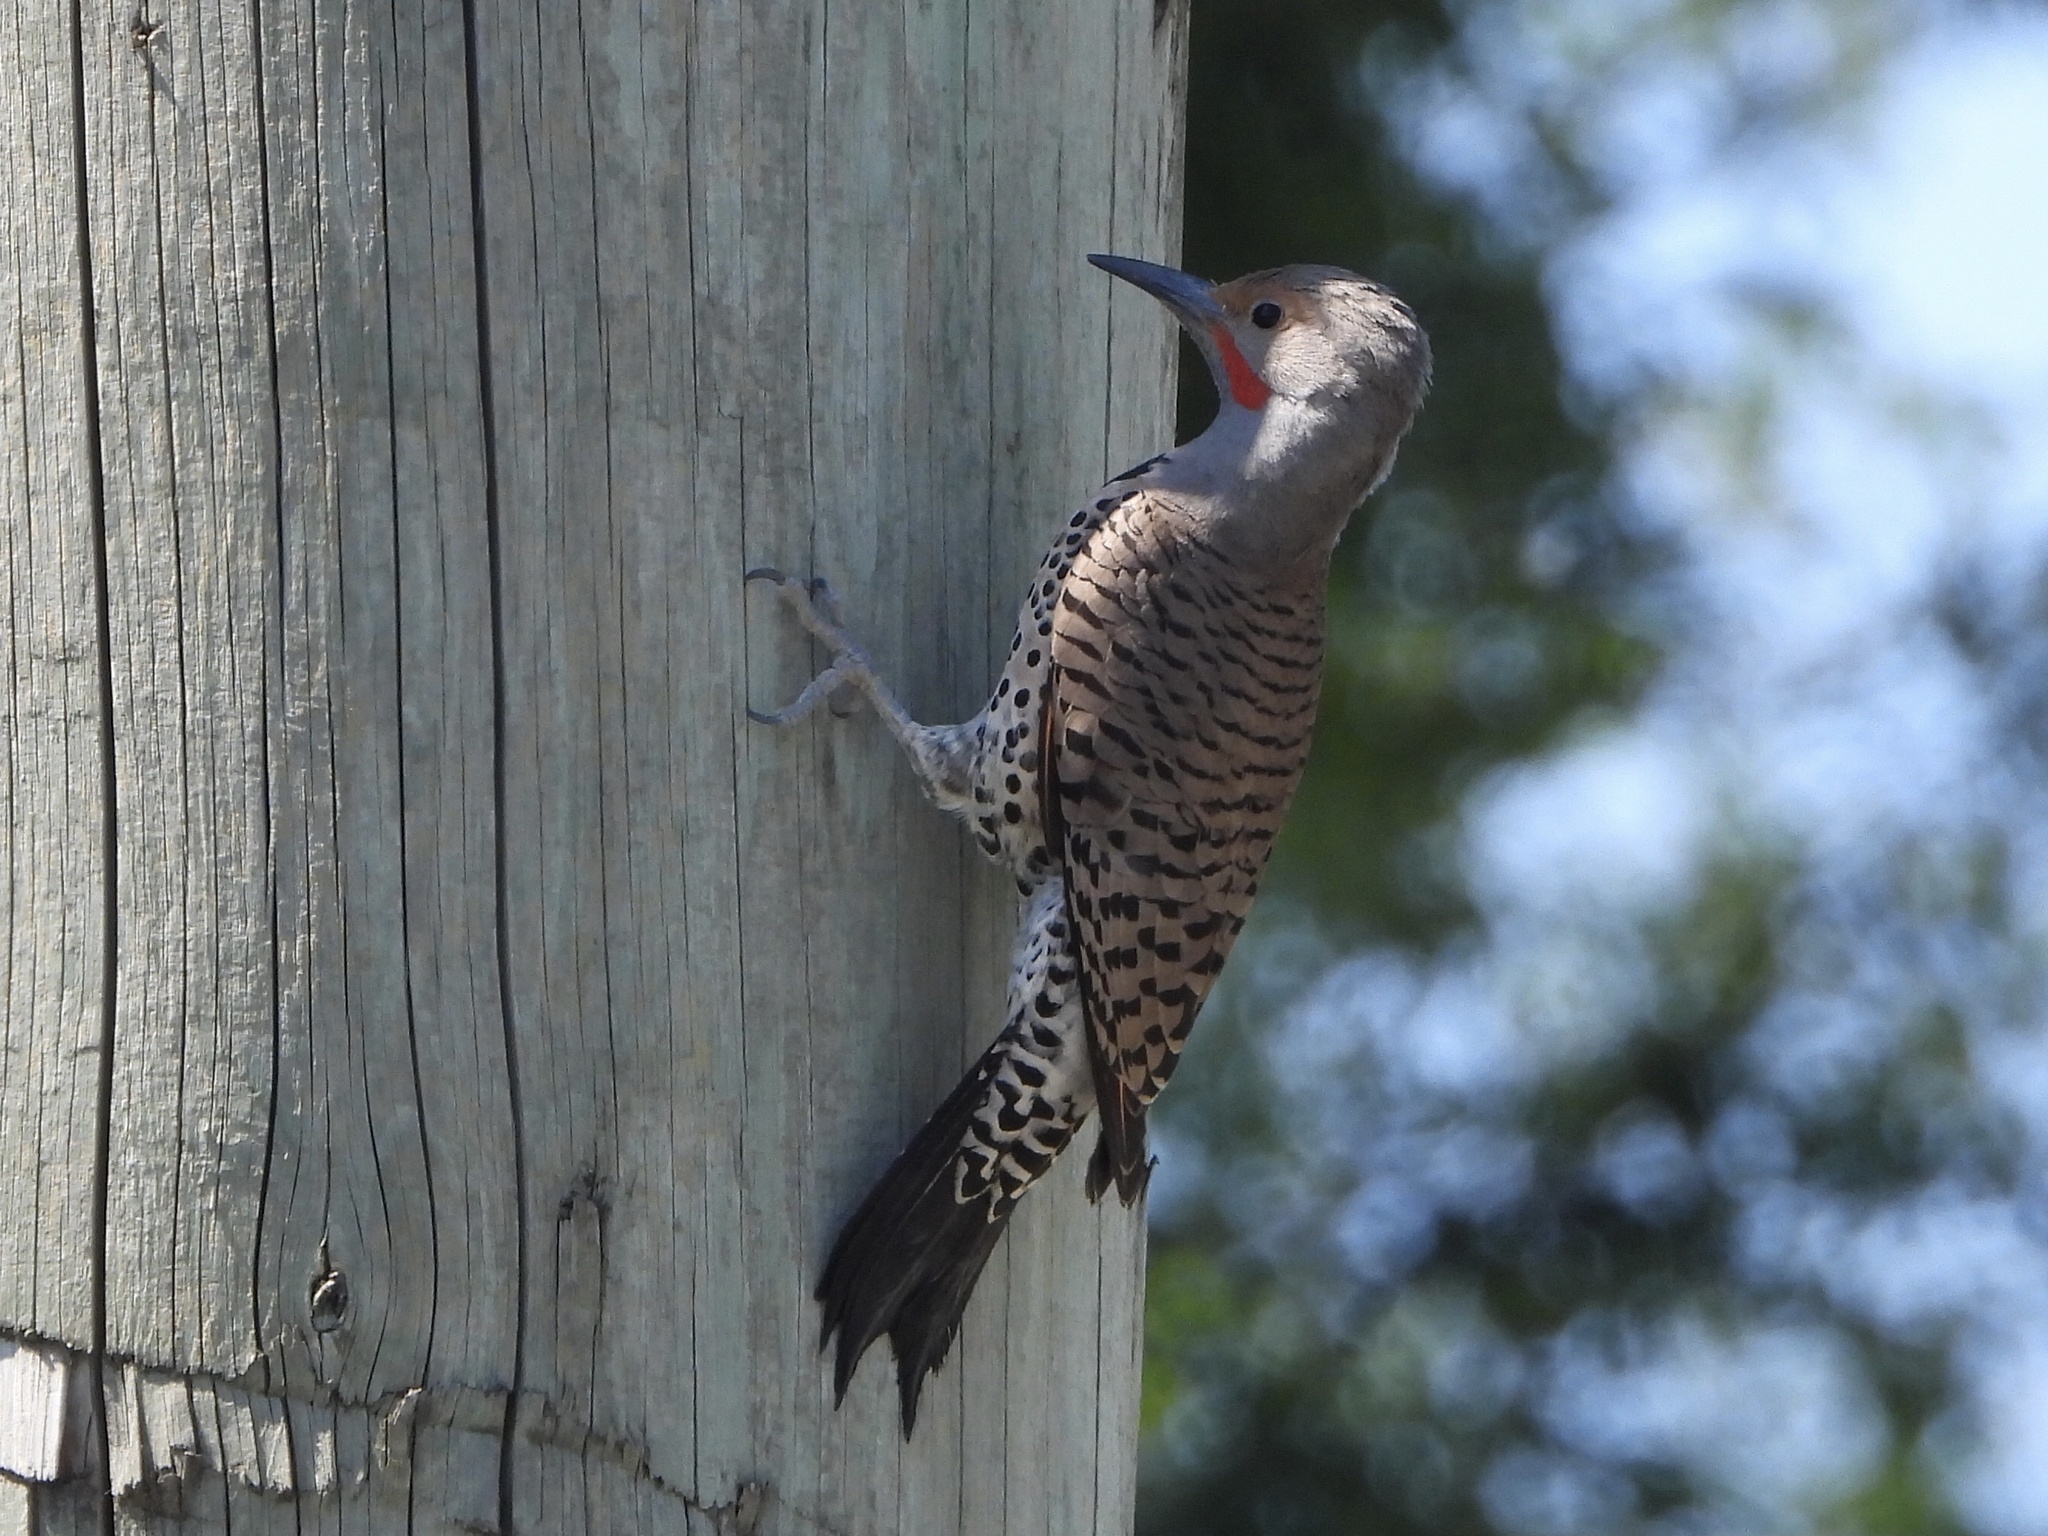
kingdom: Animalia
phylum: Chordata
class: Aves
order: Piciformes
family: Picidae
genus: Colaptes
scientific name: Colaptes auratus
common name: Northern flicker
